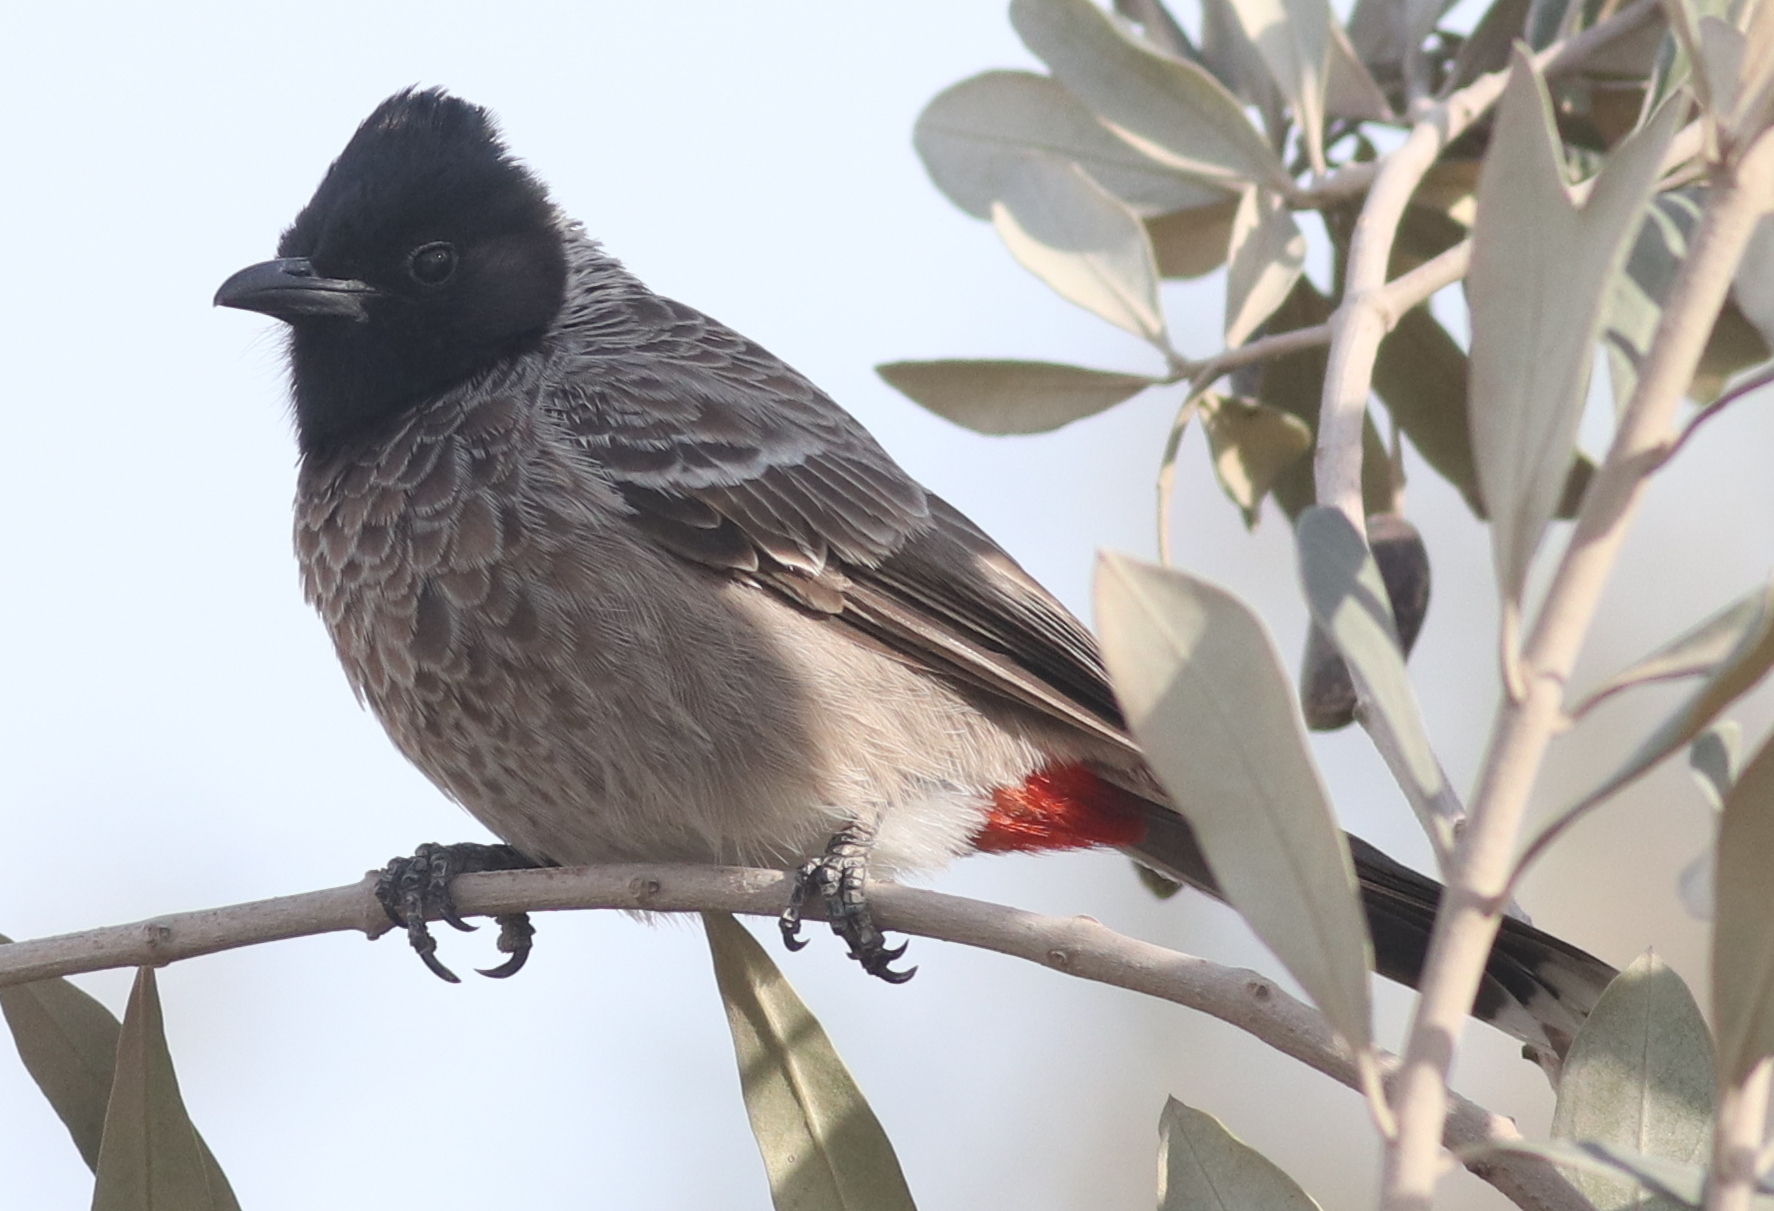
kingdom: Animalia
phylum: Chordata
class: Aves
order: Passeriformes
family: Pycnonotidae
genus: Pycnonotus
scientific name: Pycnonotus cafer
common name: Red-vented bulbul
